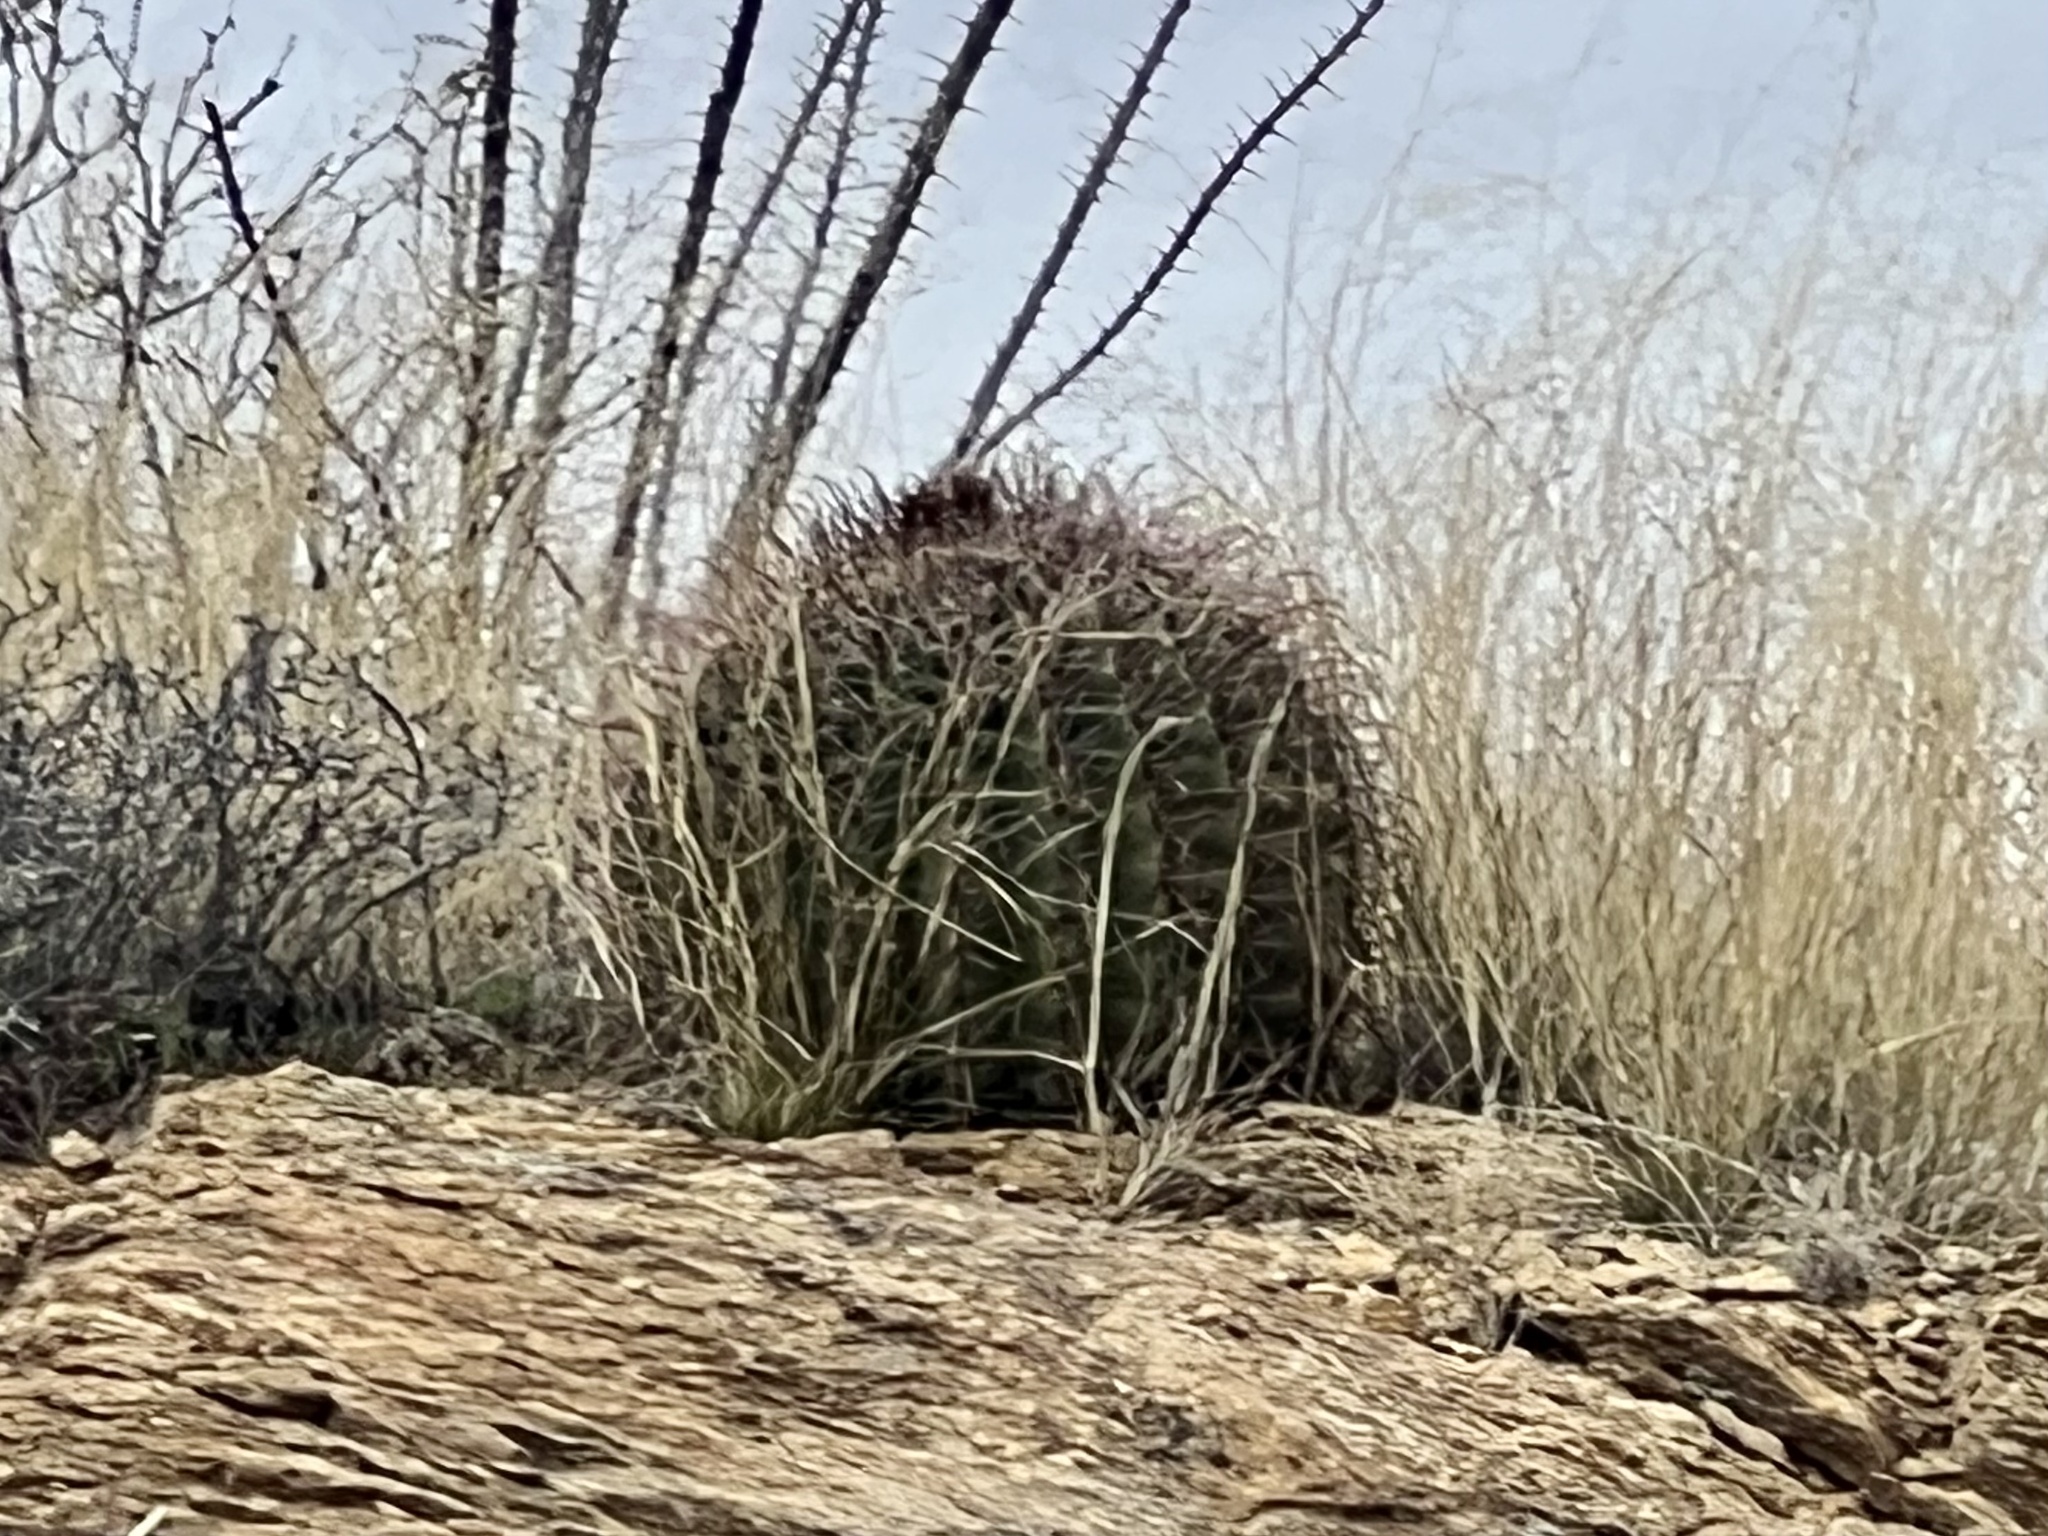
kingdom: Plantae
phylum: Tracheophyta
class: Magnoliopsida
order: Caryophyllales
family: Cactaceae
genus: Ferocactus
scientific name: Ferocactus wislizeni
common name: Candy barrel cactus
